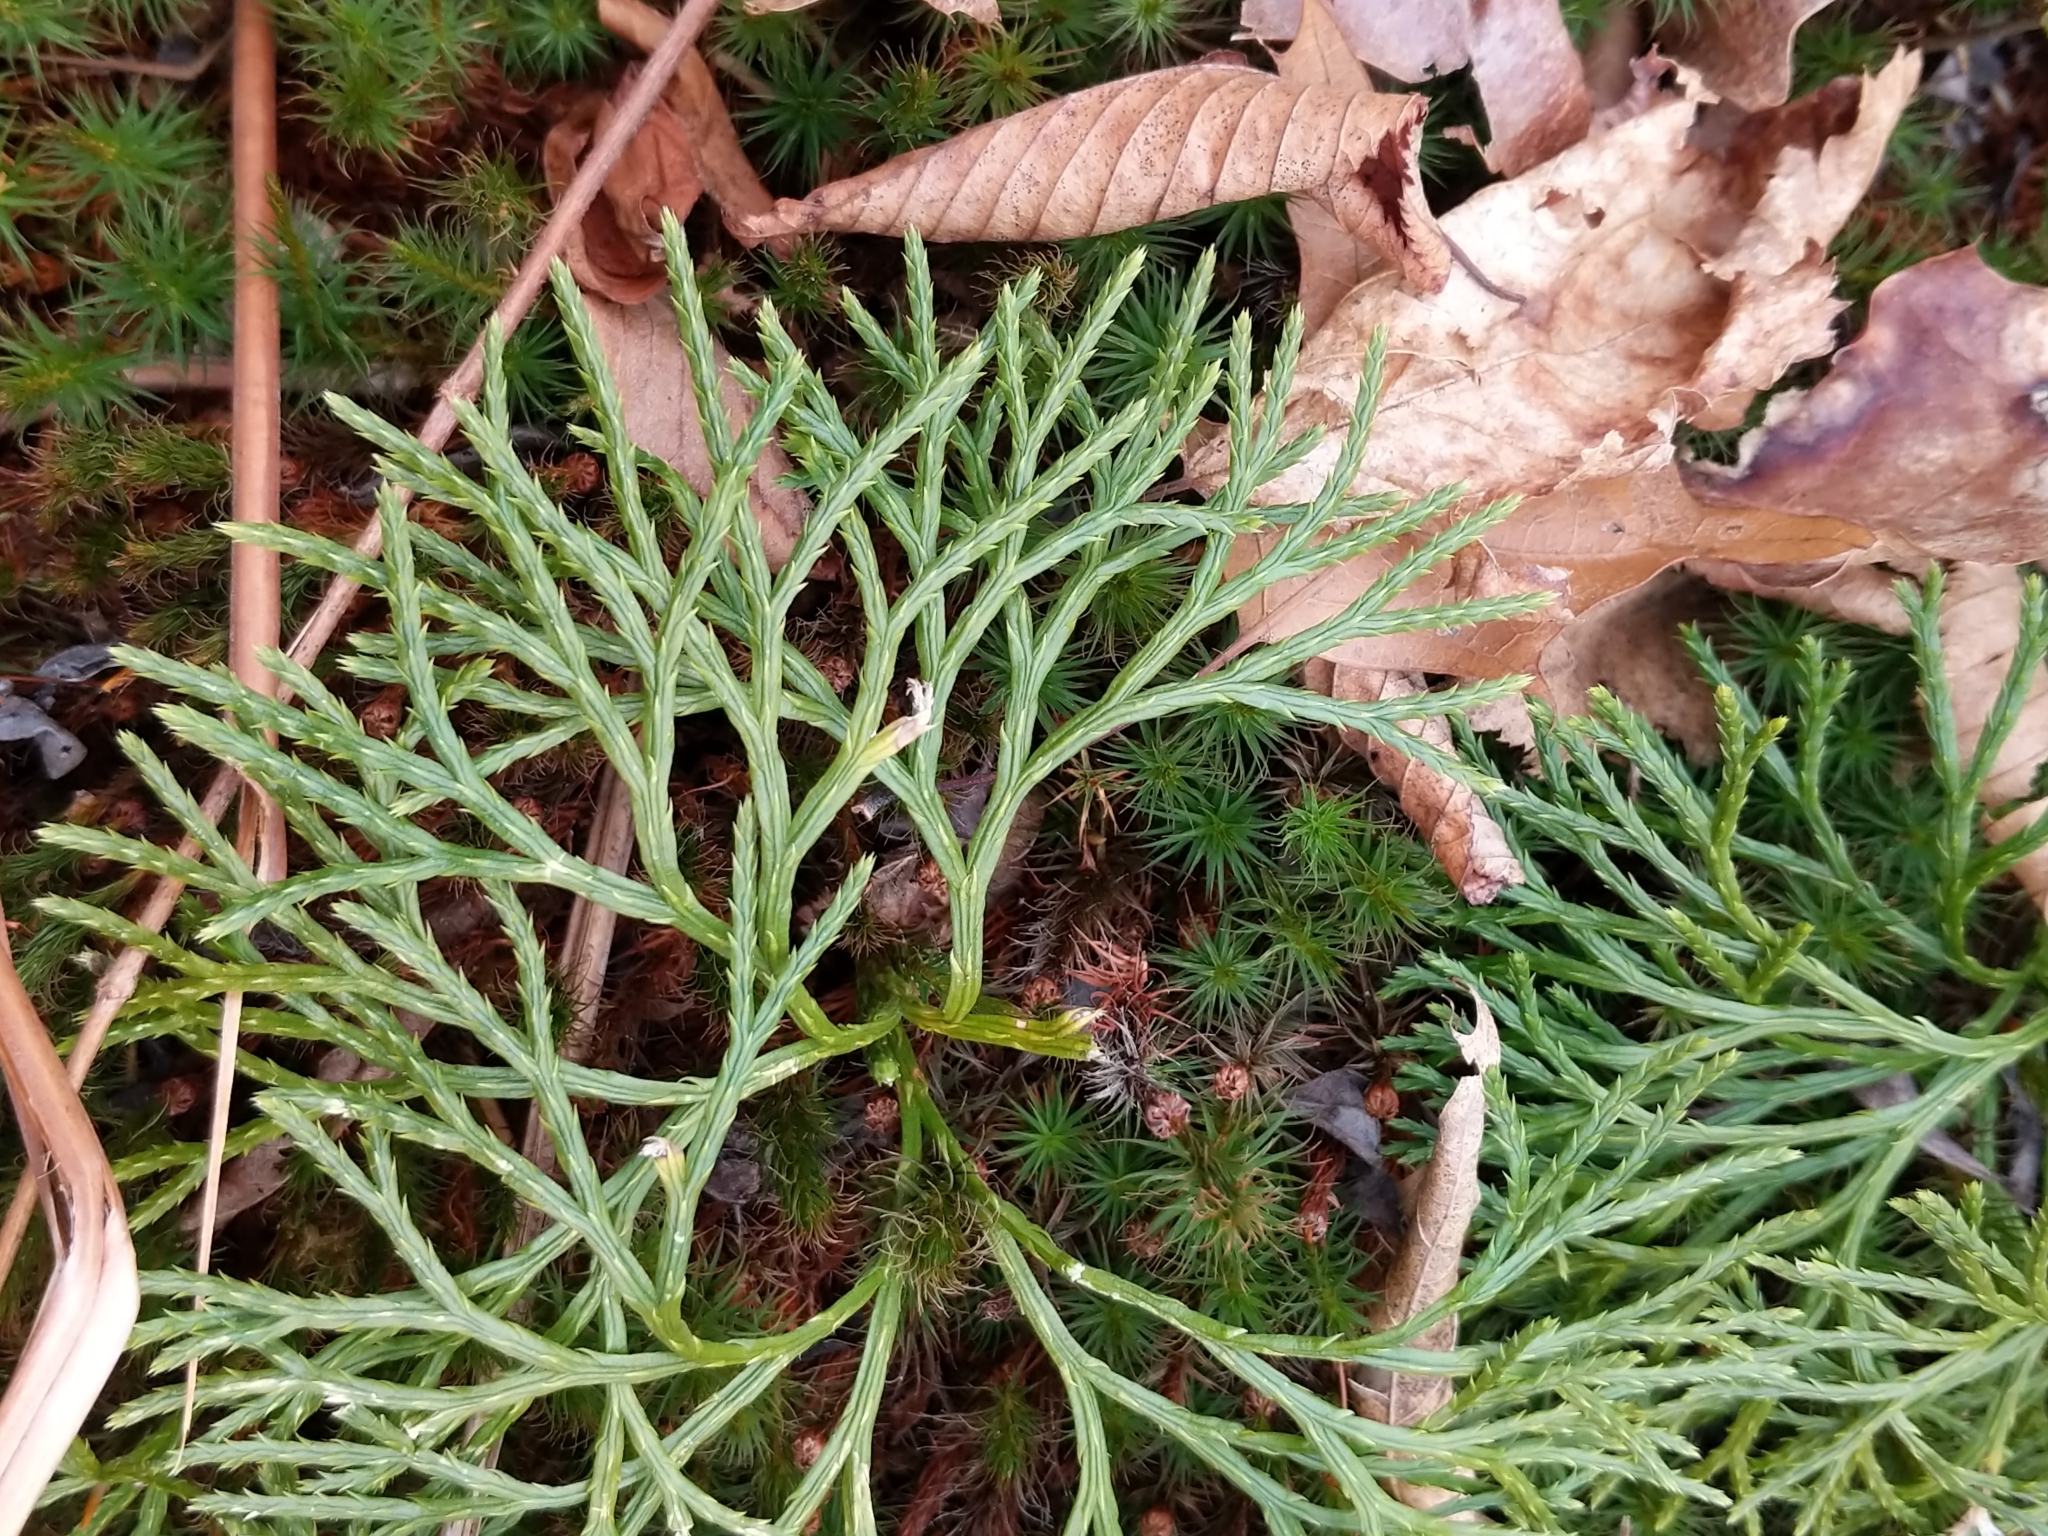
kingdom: Plantae
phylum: Tracheophyta
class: Lycopodiopsida
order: Lycopodiales
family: Lycopodiaceae
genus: Diphasiastrum
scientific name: Diphasiastrum digitatum
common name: Southern running-pine
